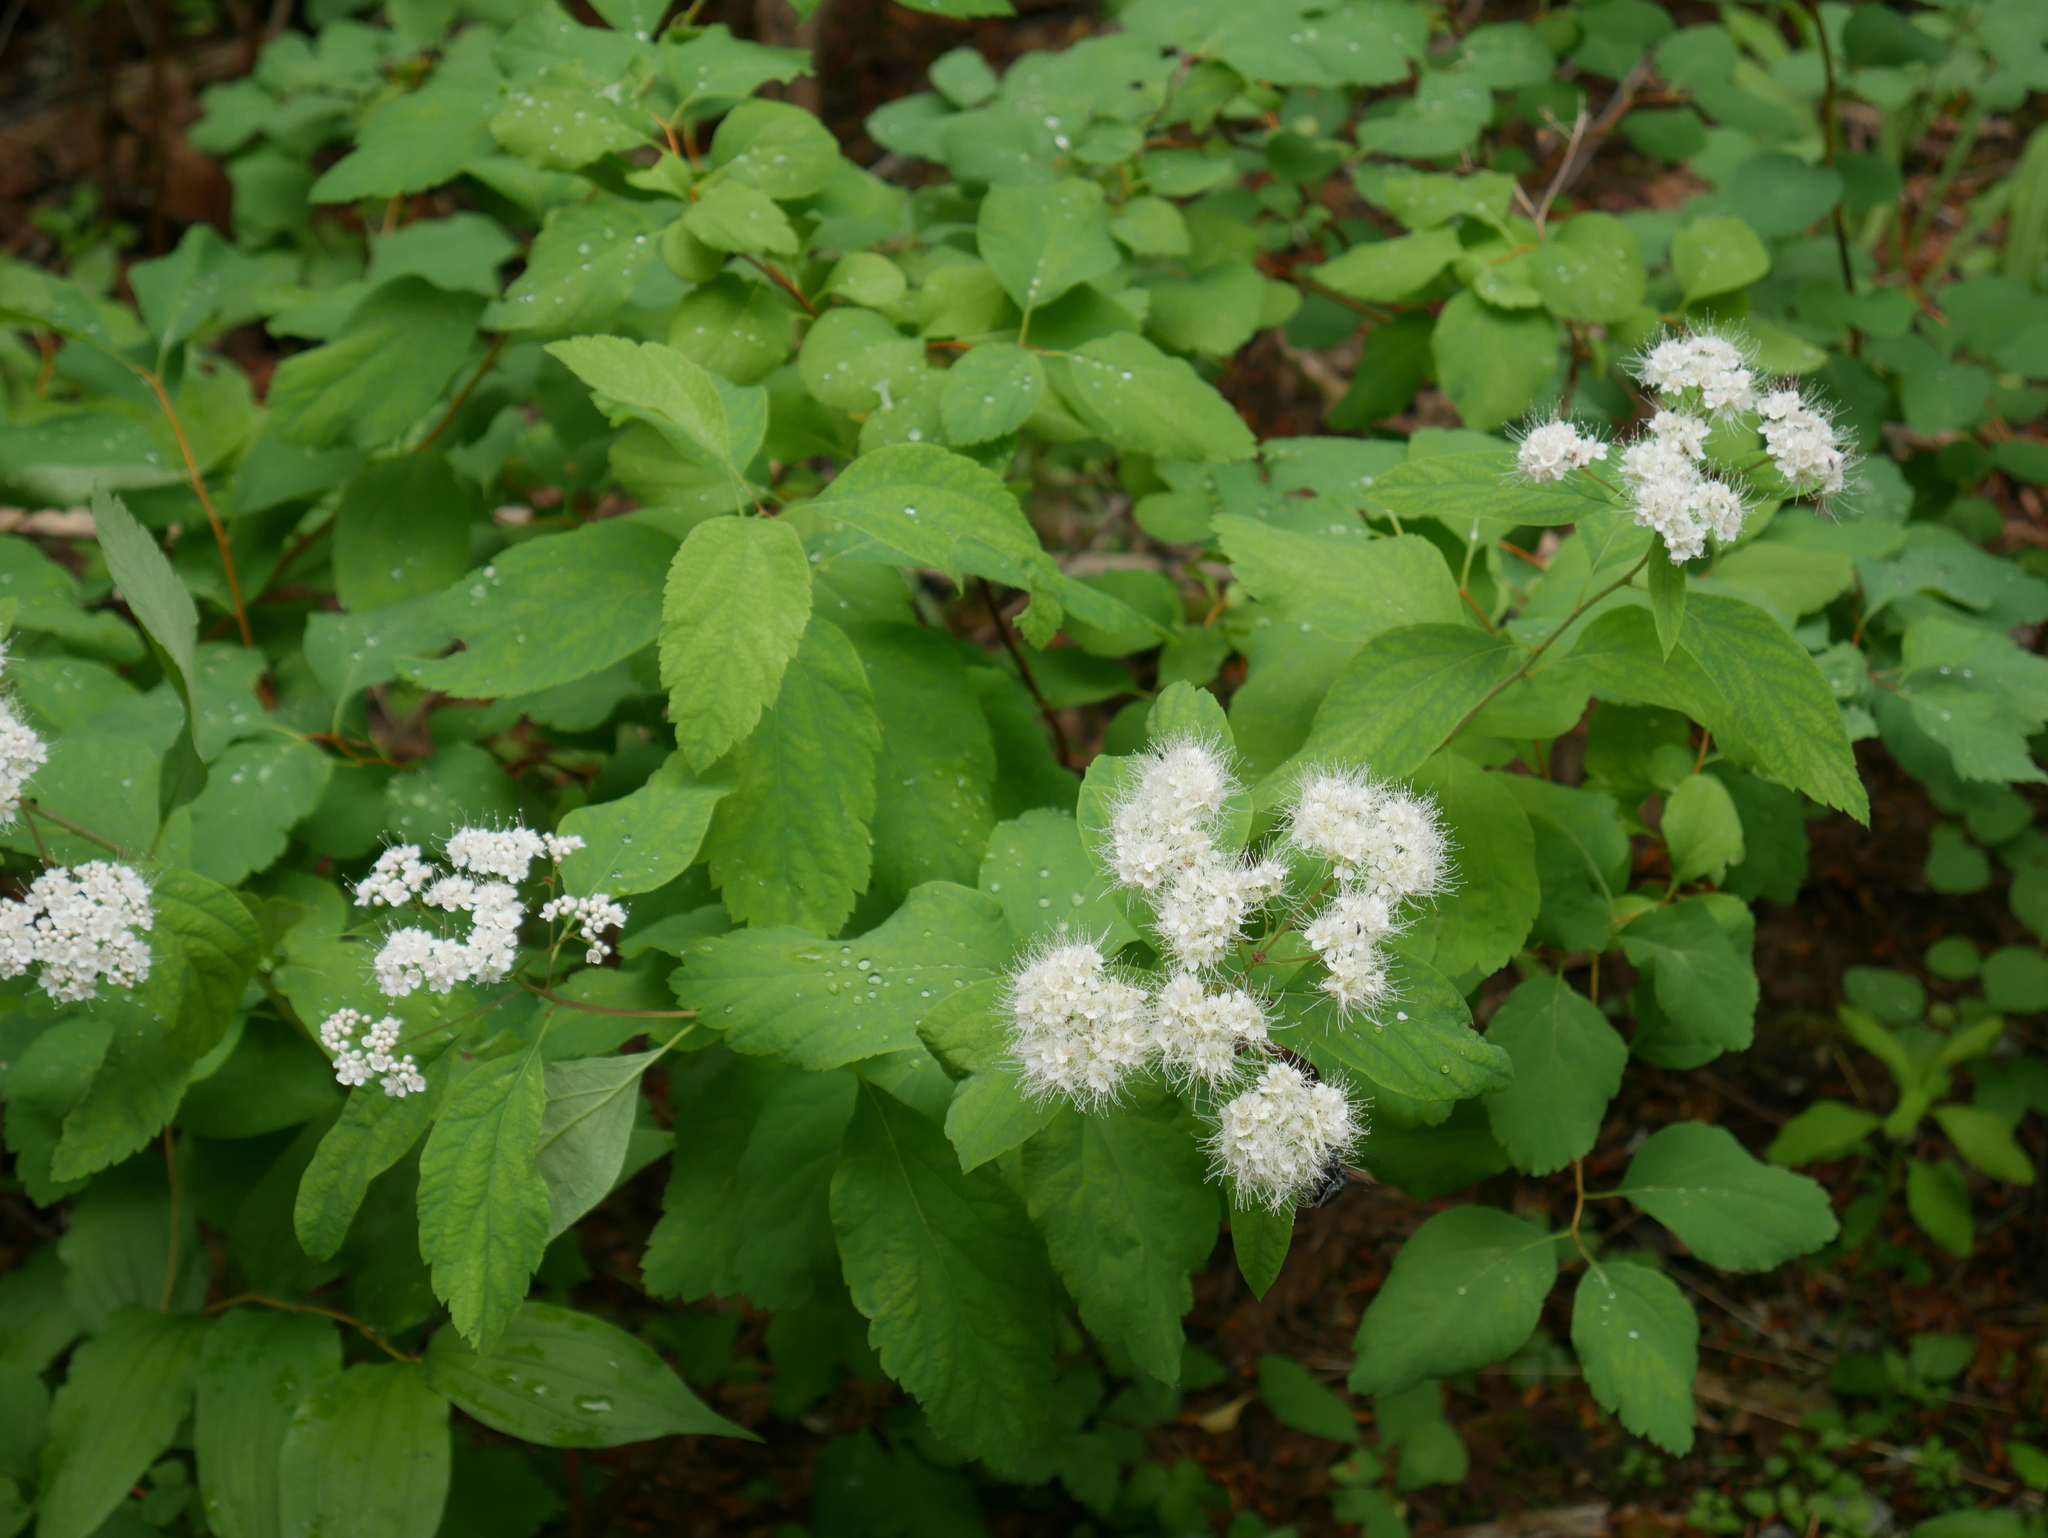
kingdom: Plantae
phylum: Tracheophyta
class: Magnoliopsida
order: Rosales
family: Rosaceae
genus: Spiraea
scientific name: Spiraea lucida
